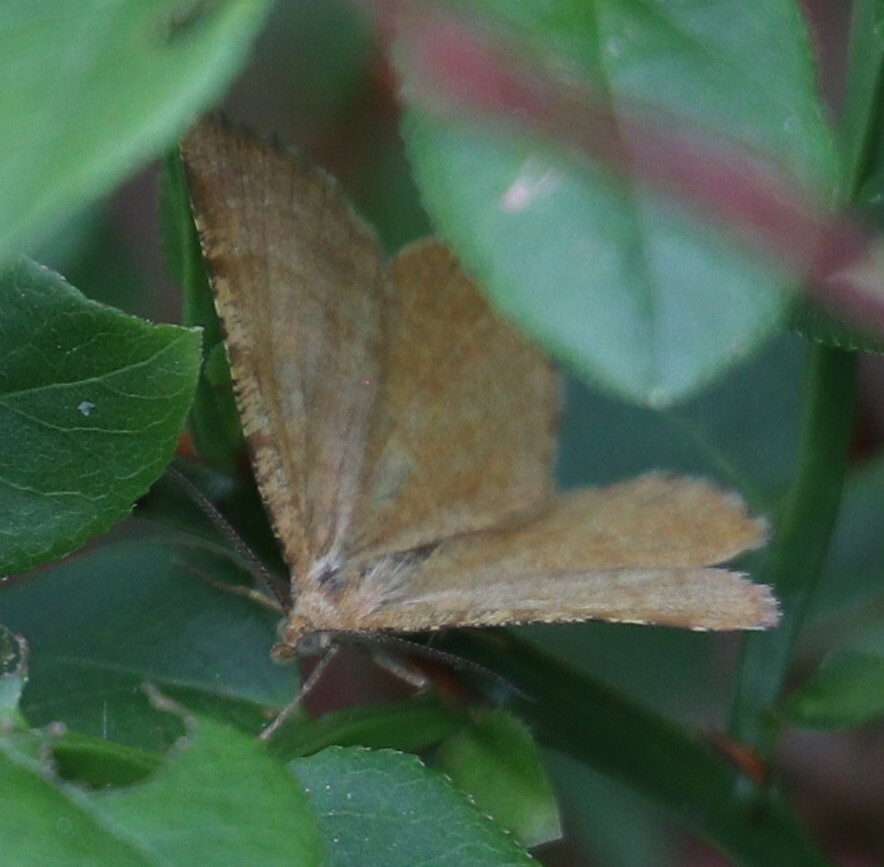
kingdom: Animalia
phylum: Arthropoda
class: Insecta
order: Lepidoptera
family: Geometridae
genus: Macaria
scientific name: Macaria liturata
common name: Tawny-barred angle
